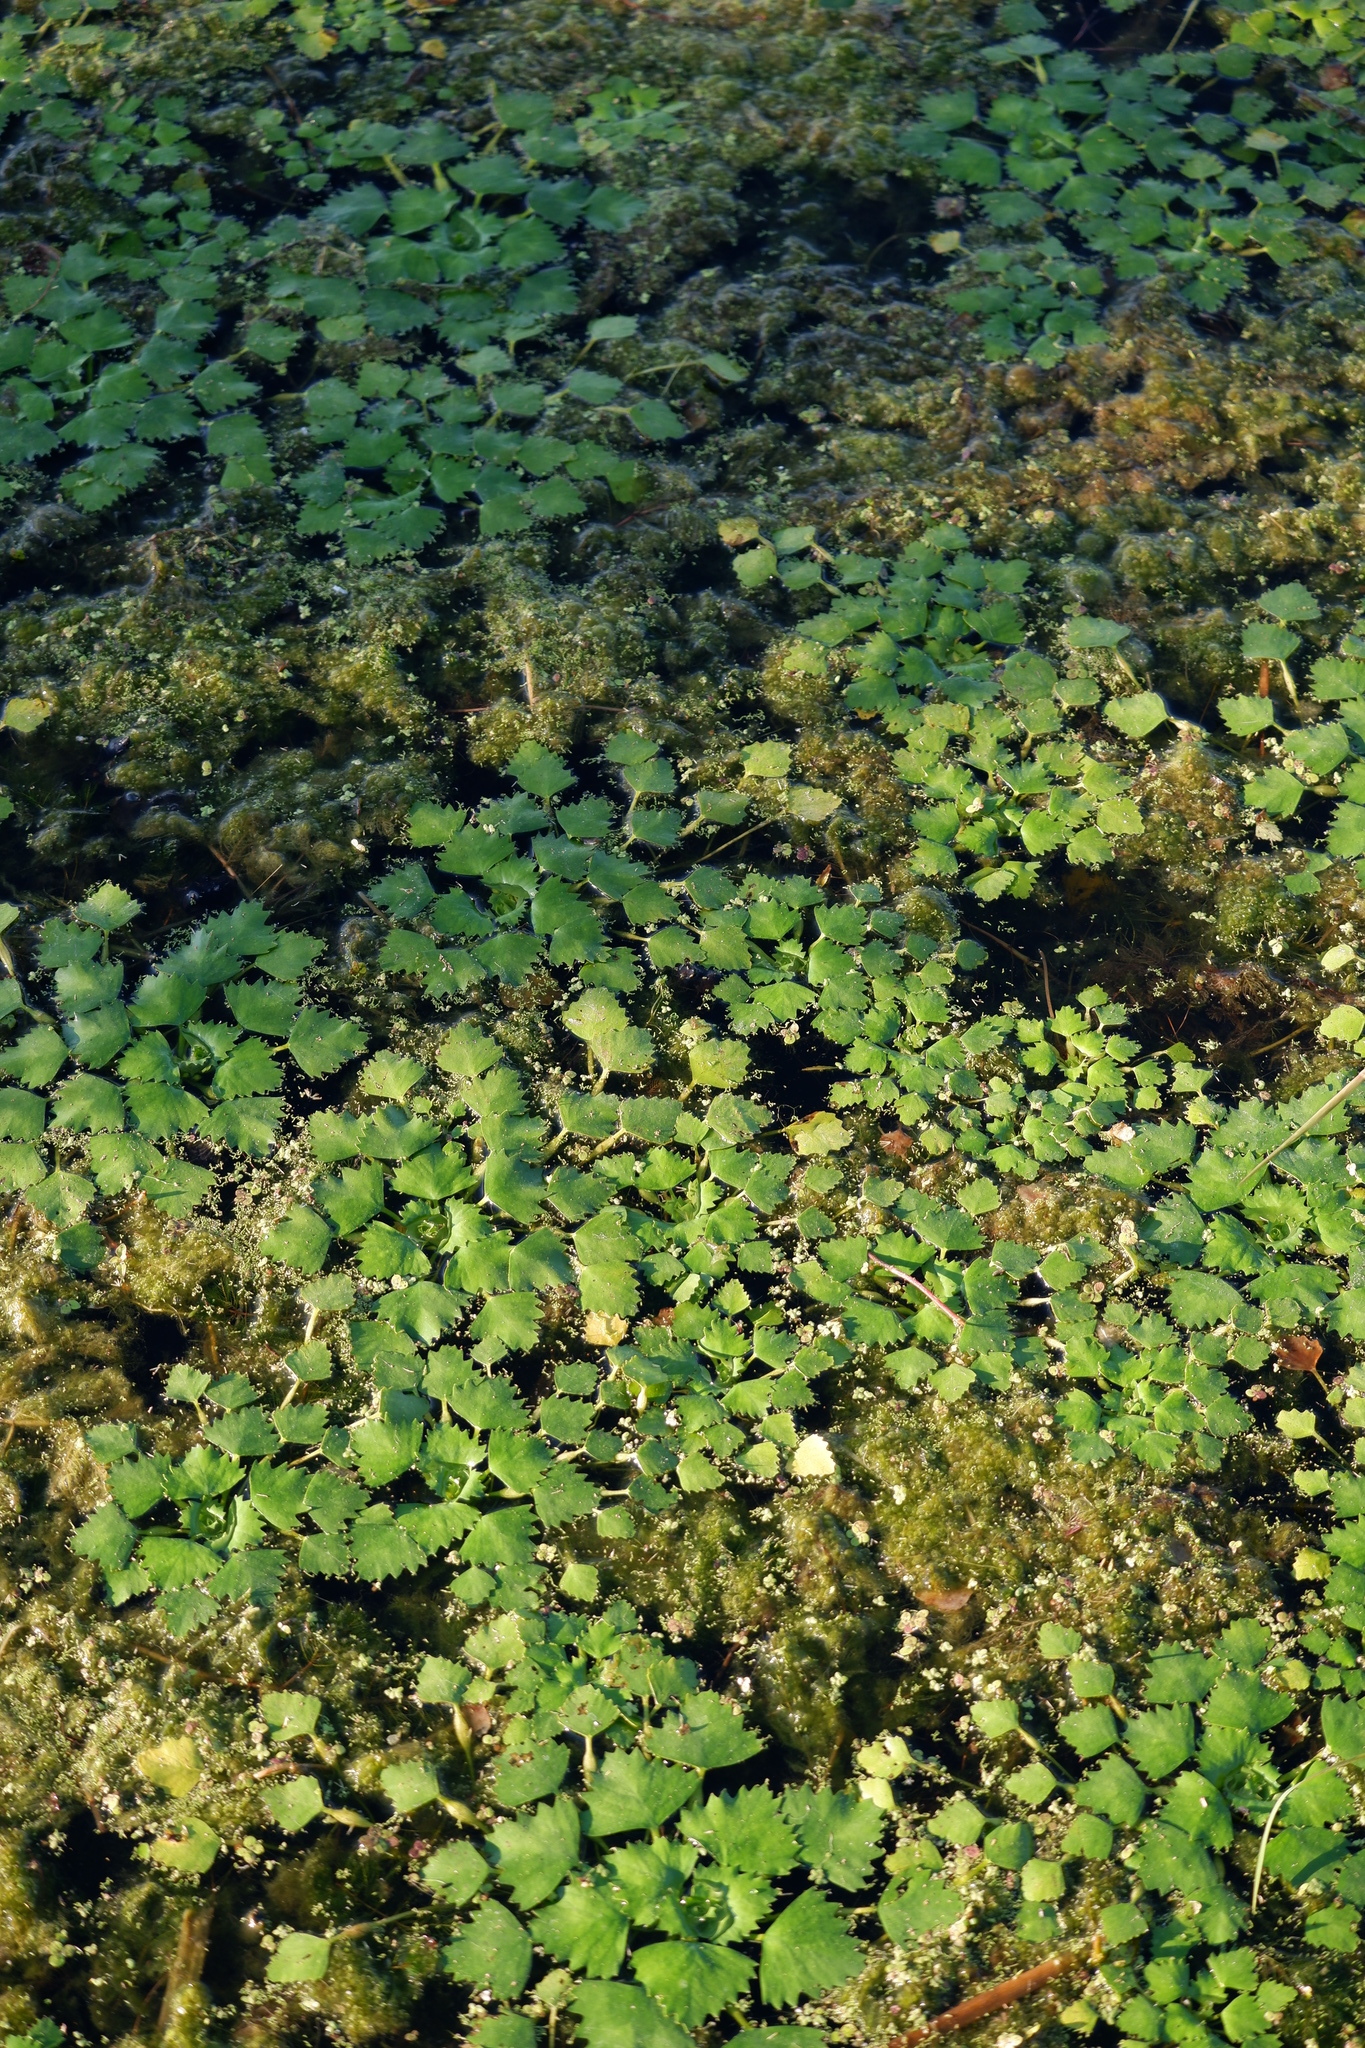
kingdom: Plantae
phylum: Tracheophyta
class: Magnoliopsida
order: Myrtales
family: Lythraceae
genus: Trapa
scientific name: Trapa natans
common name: Water chestnut
